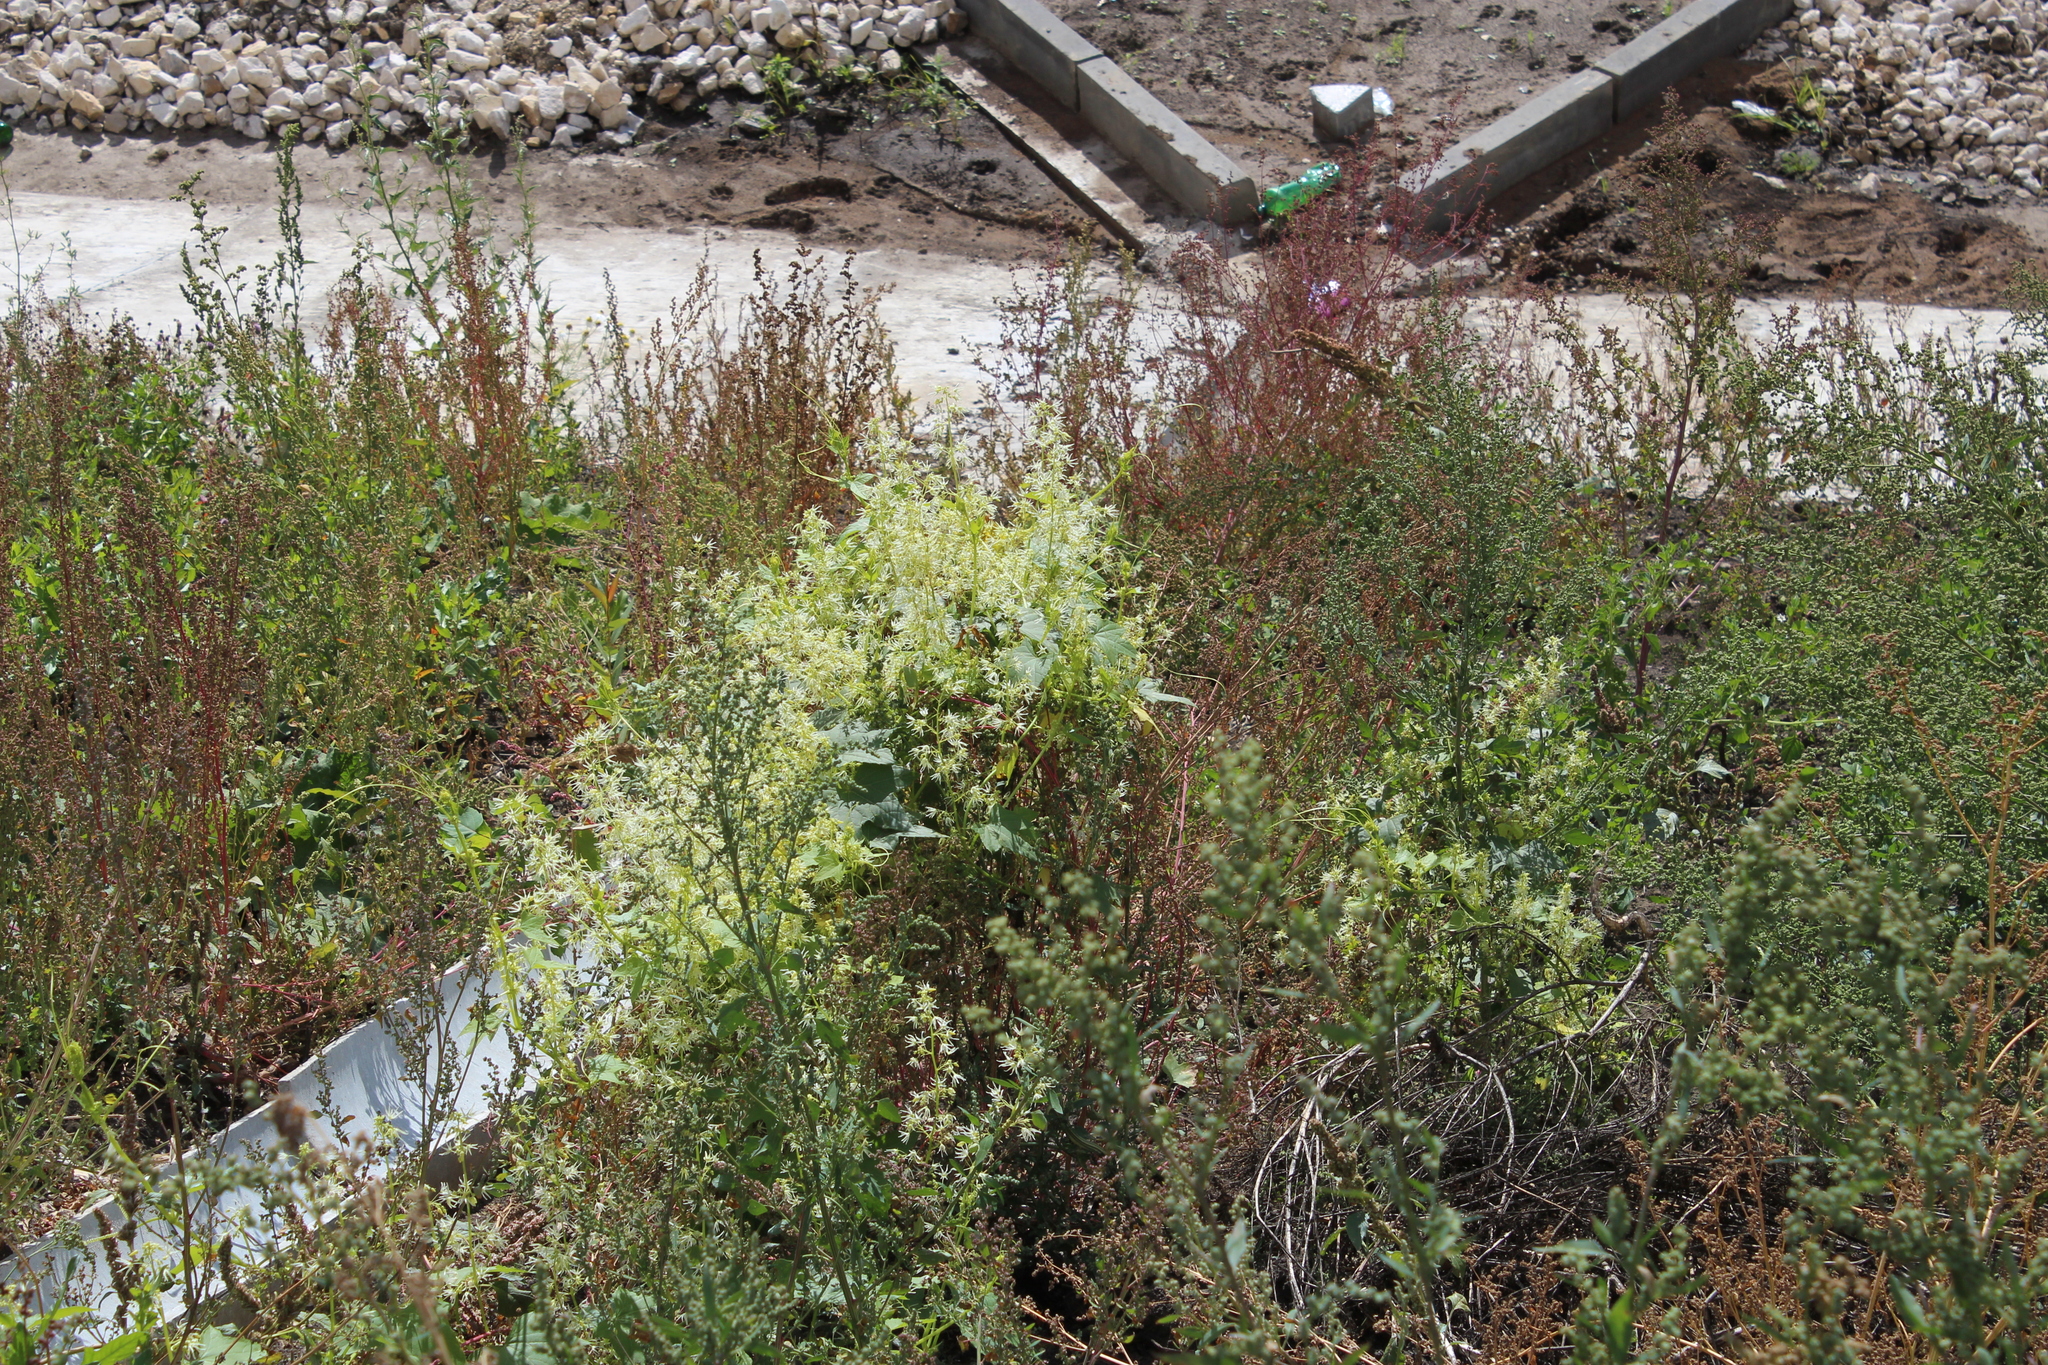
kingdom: Plantae
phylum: Tracheophyta
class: Magnoliopsida
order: Cucurbitales
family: Cucurbitaceae
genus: Echinocystis
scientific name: Echinocystis lobata
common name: Wild cucumber
